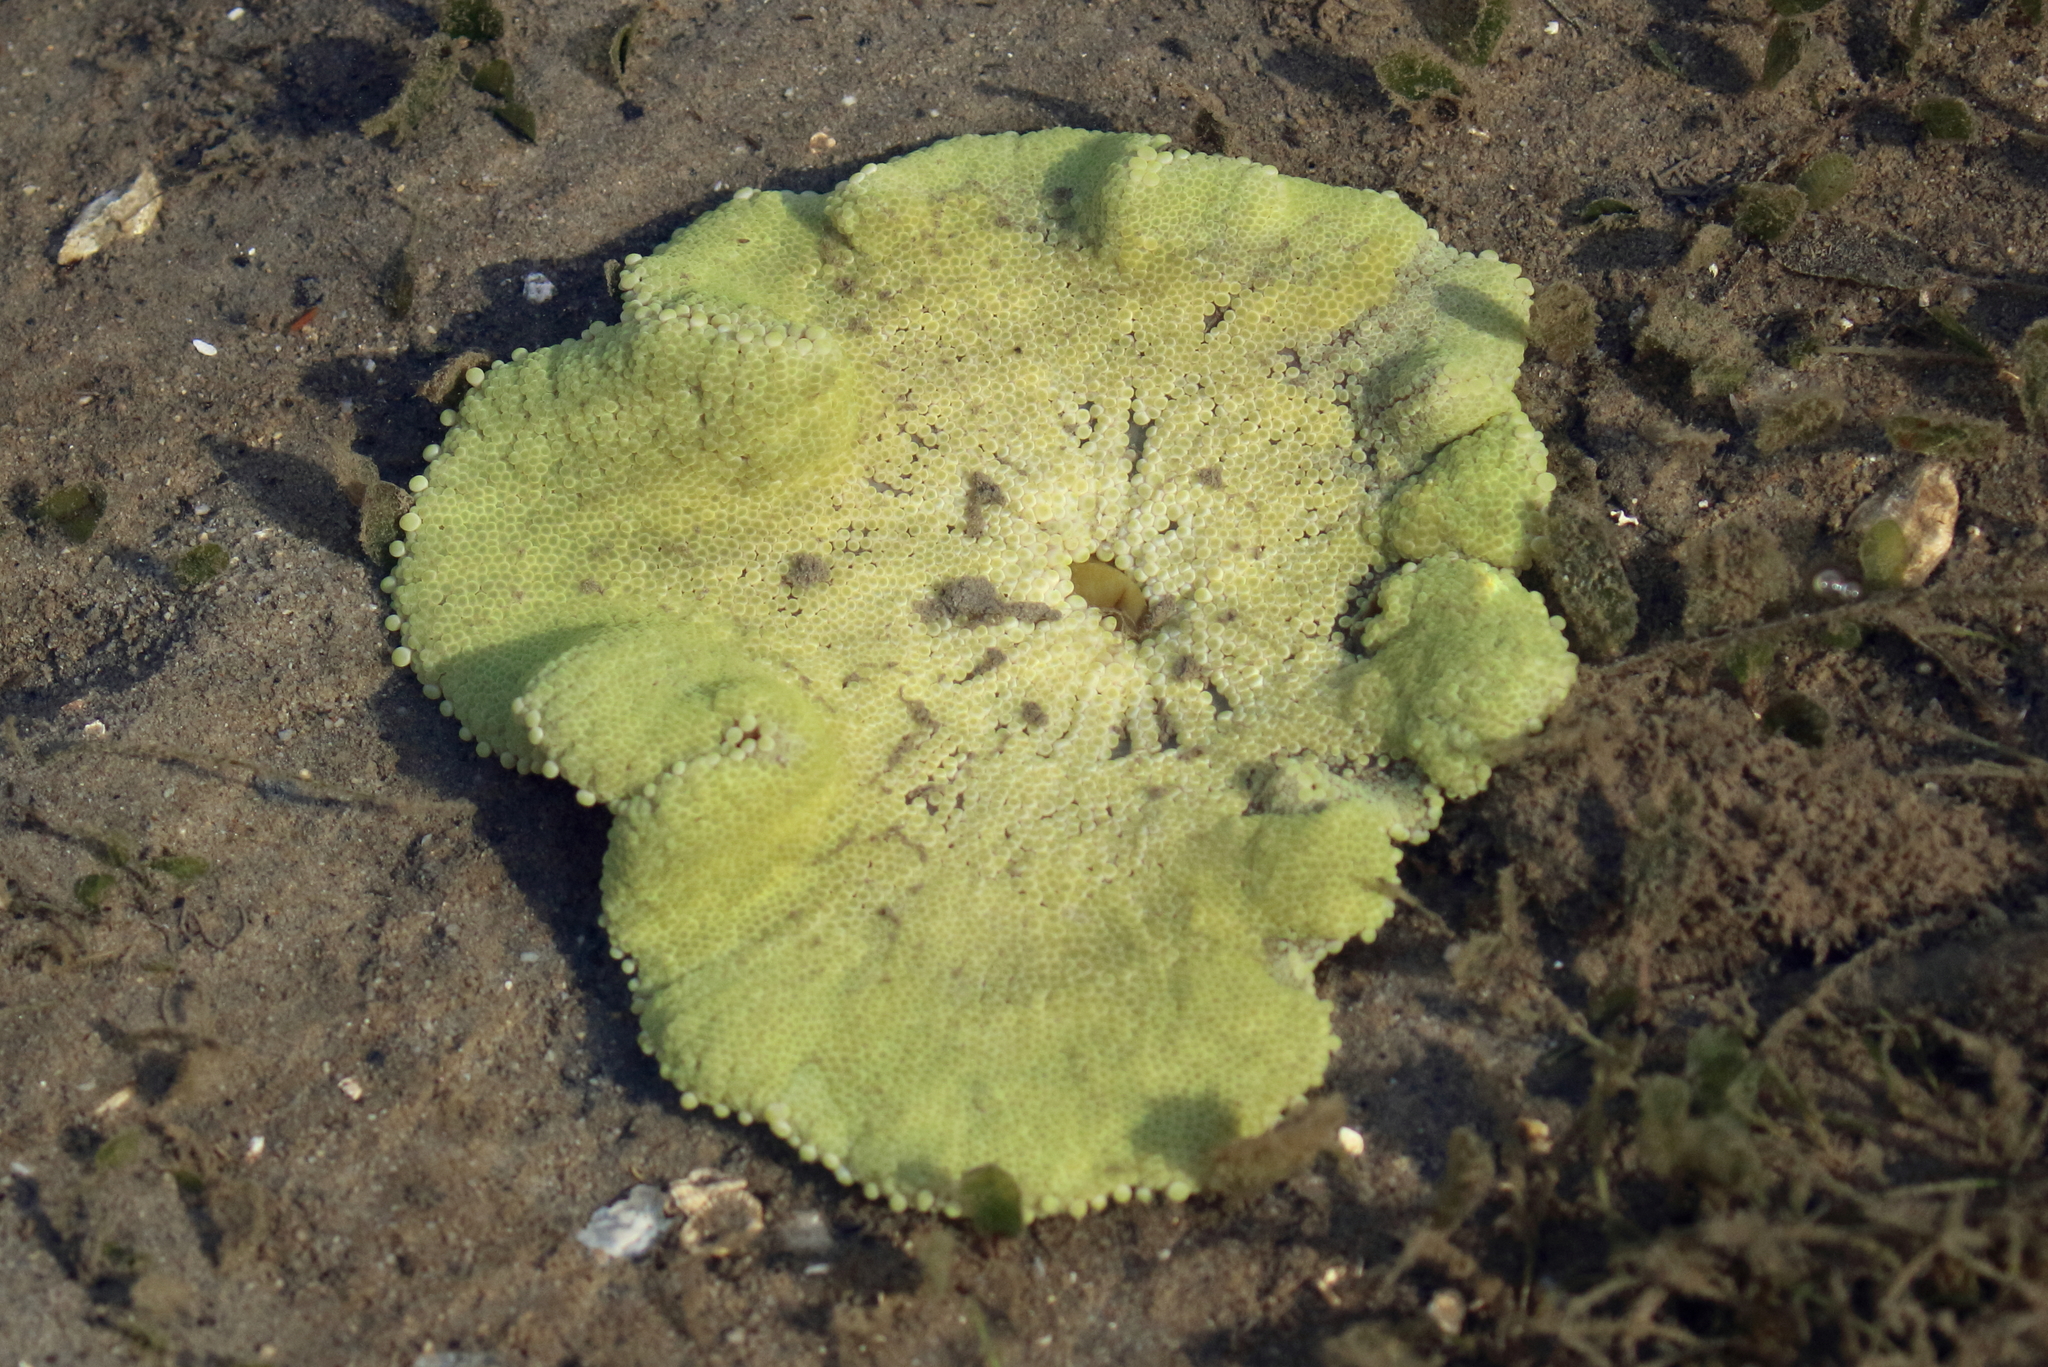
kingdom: Animalia
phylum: Cnidaria
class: Anthozoa
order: Actiniaria
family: Stichodactylidae
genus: Stichodactyla
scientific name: Stichodactyla haddoni
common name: Haddon's sea anemone
